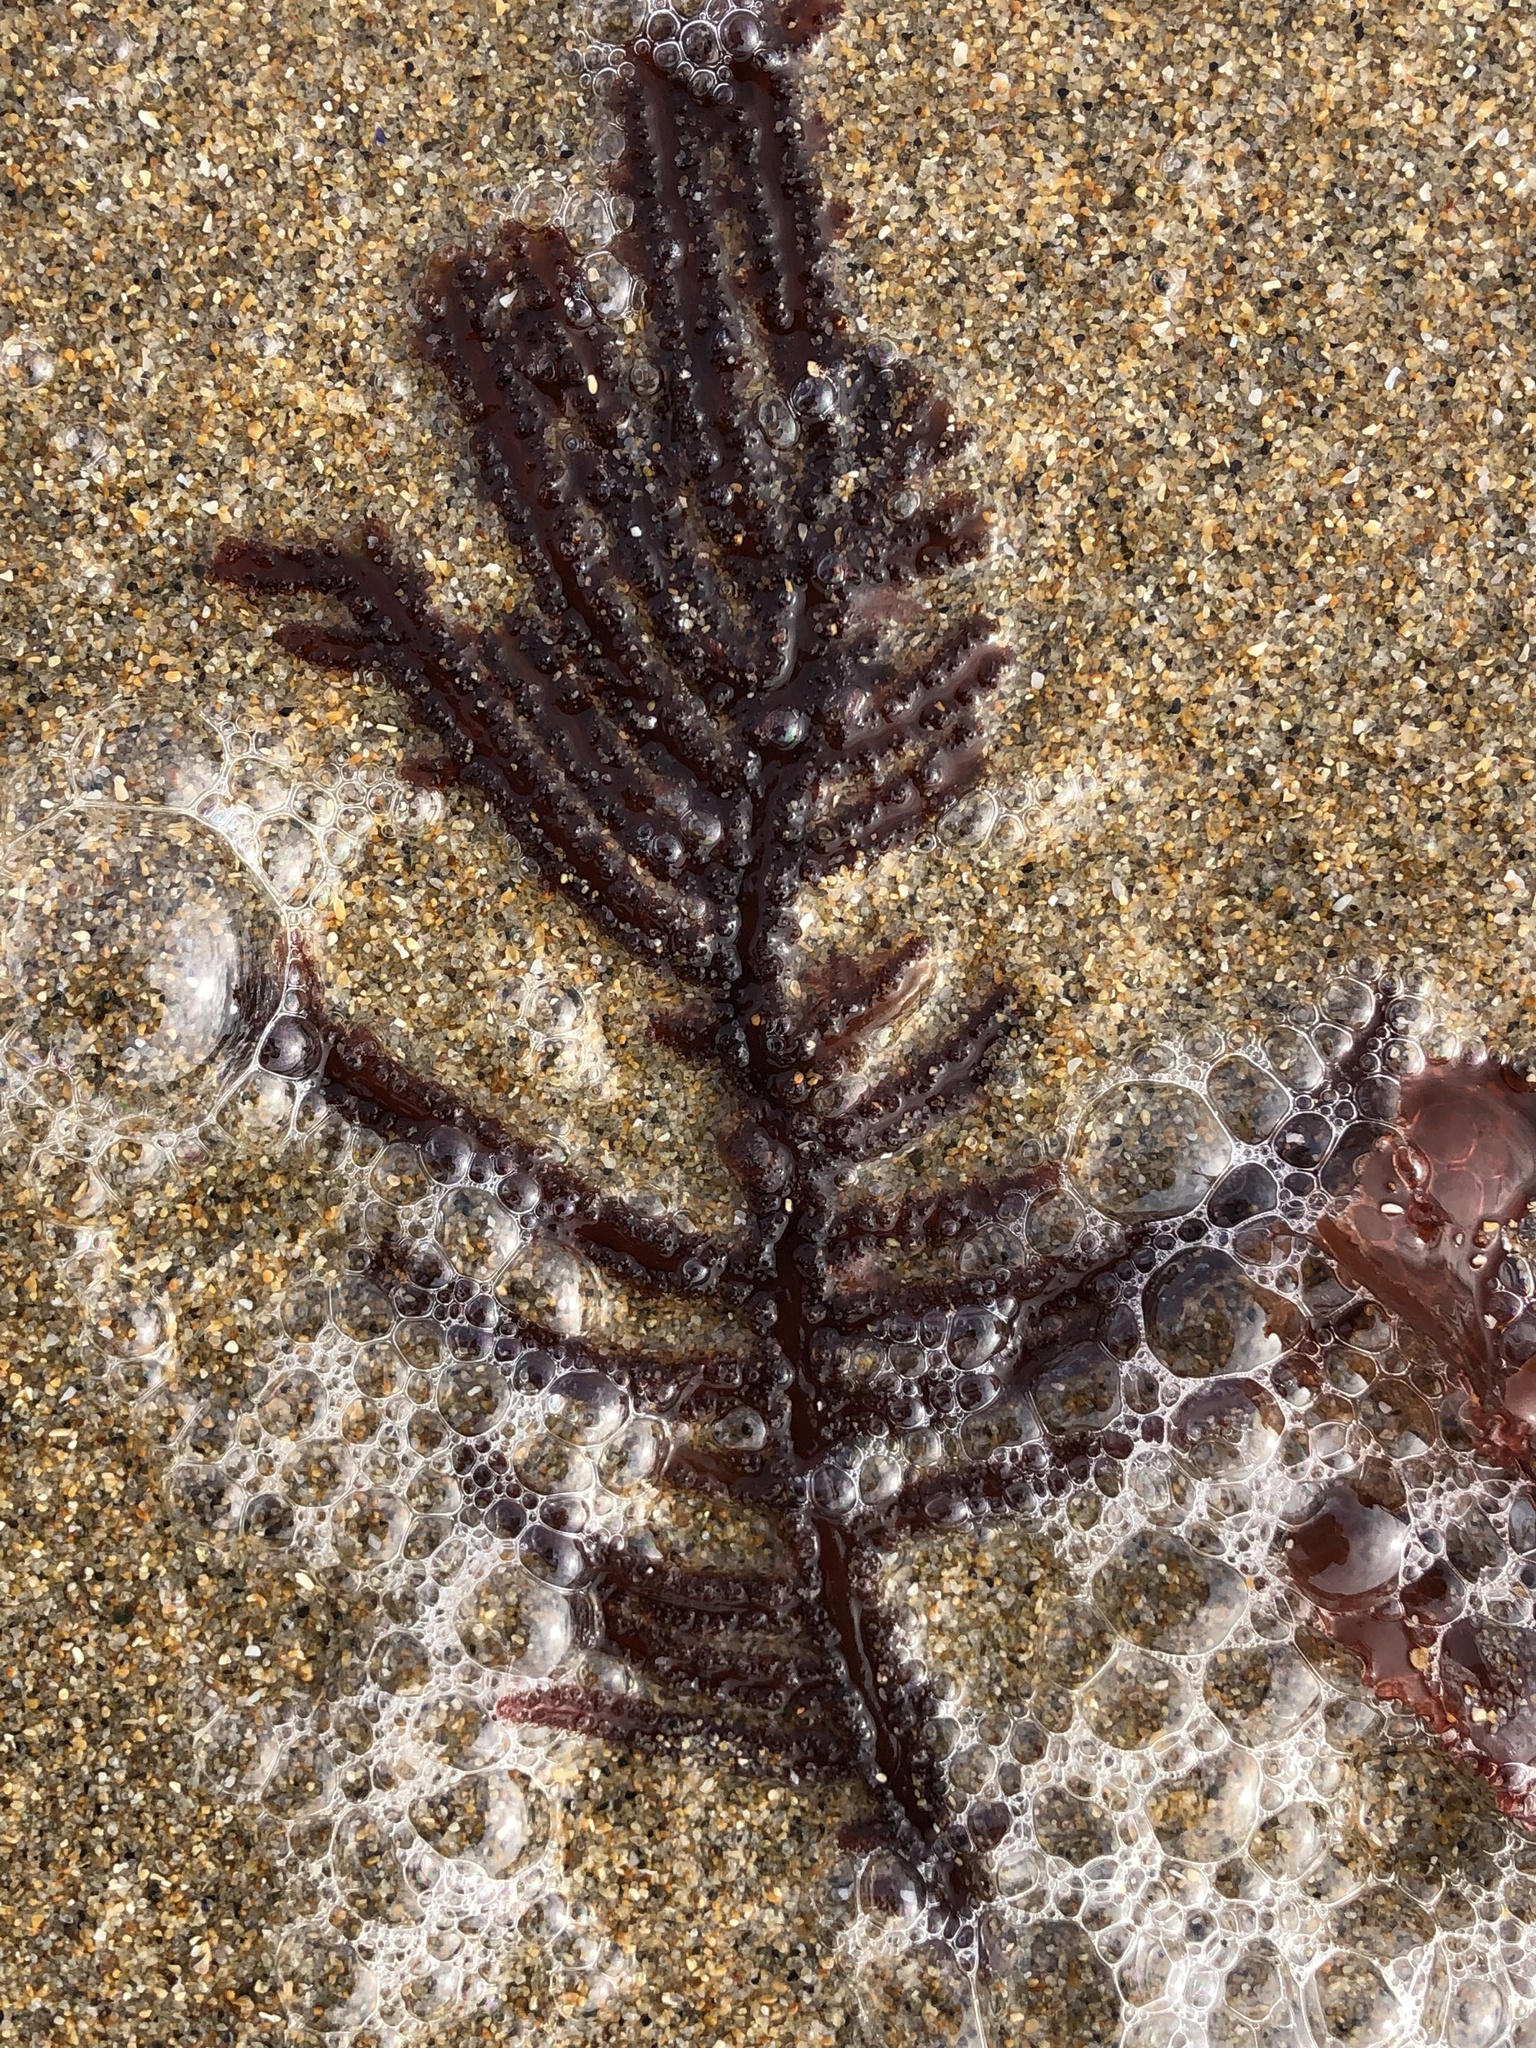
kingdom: Plantae
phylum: Rhodophyta
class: Florideophyceae
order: Ceramiales
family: Wrangeliaceae
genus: Neoptilota
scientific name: Neoptilota densa
